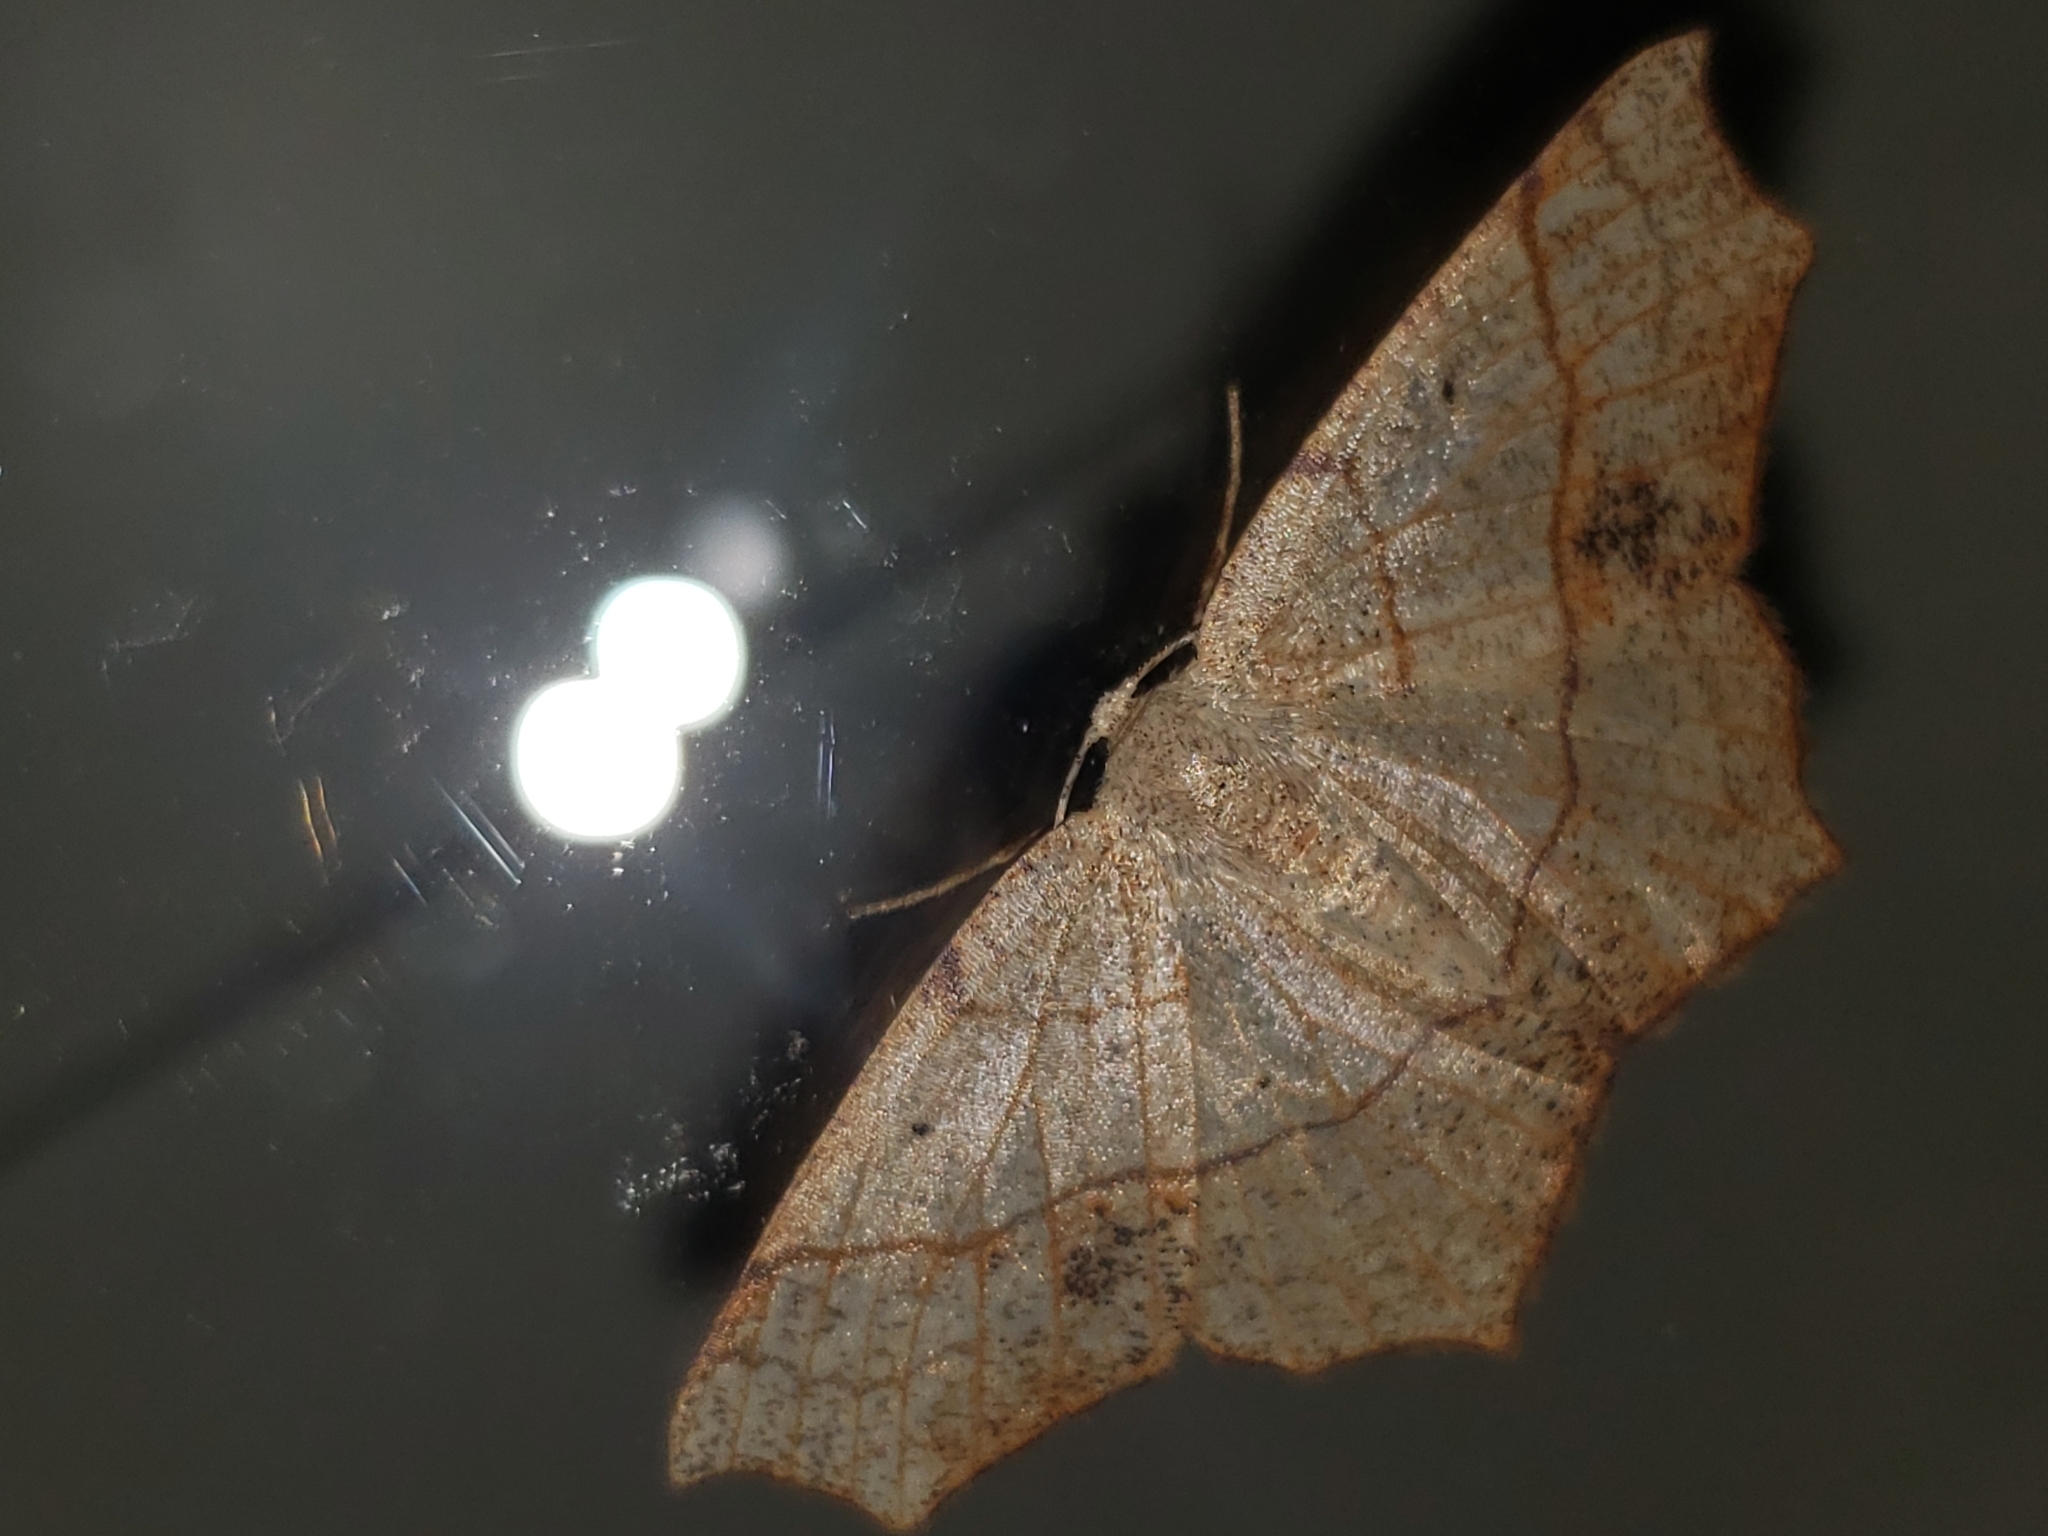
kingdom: Animalia
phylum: Arthropoda
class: Insecta
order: Lepidoptera
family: Geometridae
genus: Besma
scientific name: Besma quercivoraria
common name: Oak besma
